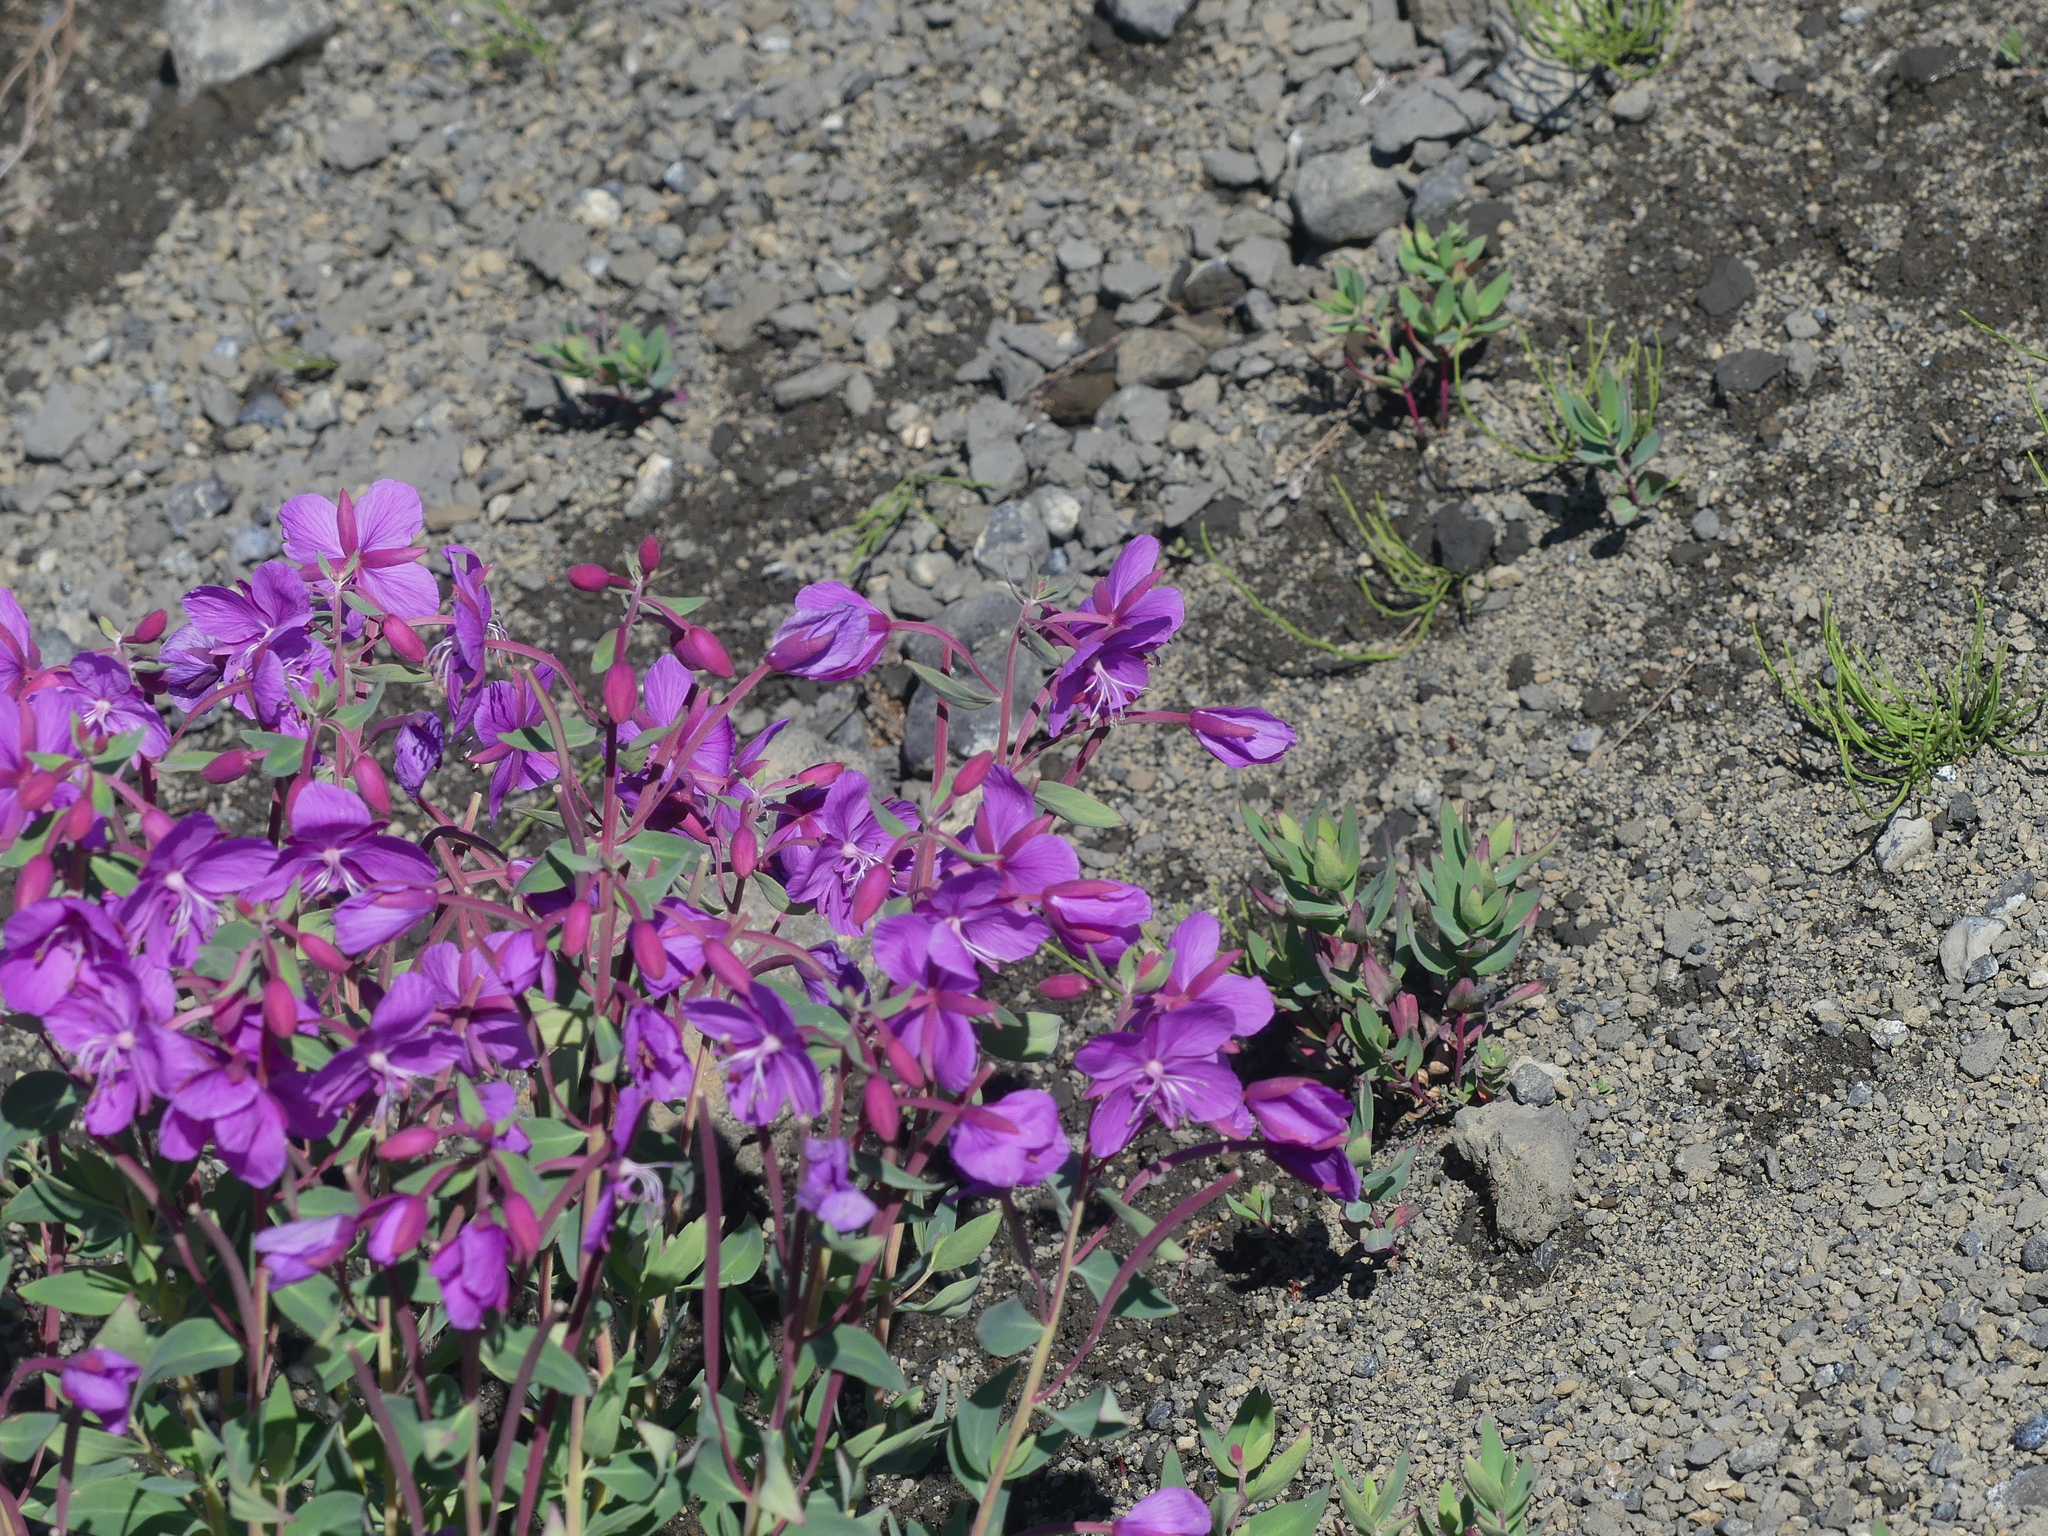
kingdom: Plantae
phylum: Tracheophyta
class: Magnoliopsida
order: Myrtales
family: Onagraceae
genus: Chamaenerion
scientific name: Chamaenerion latifolium
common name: Dwarf fireweed
